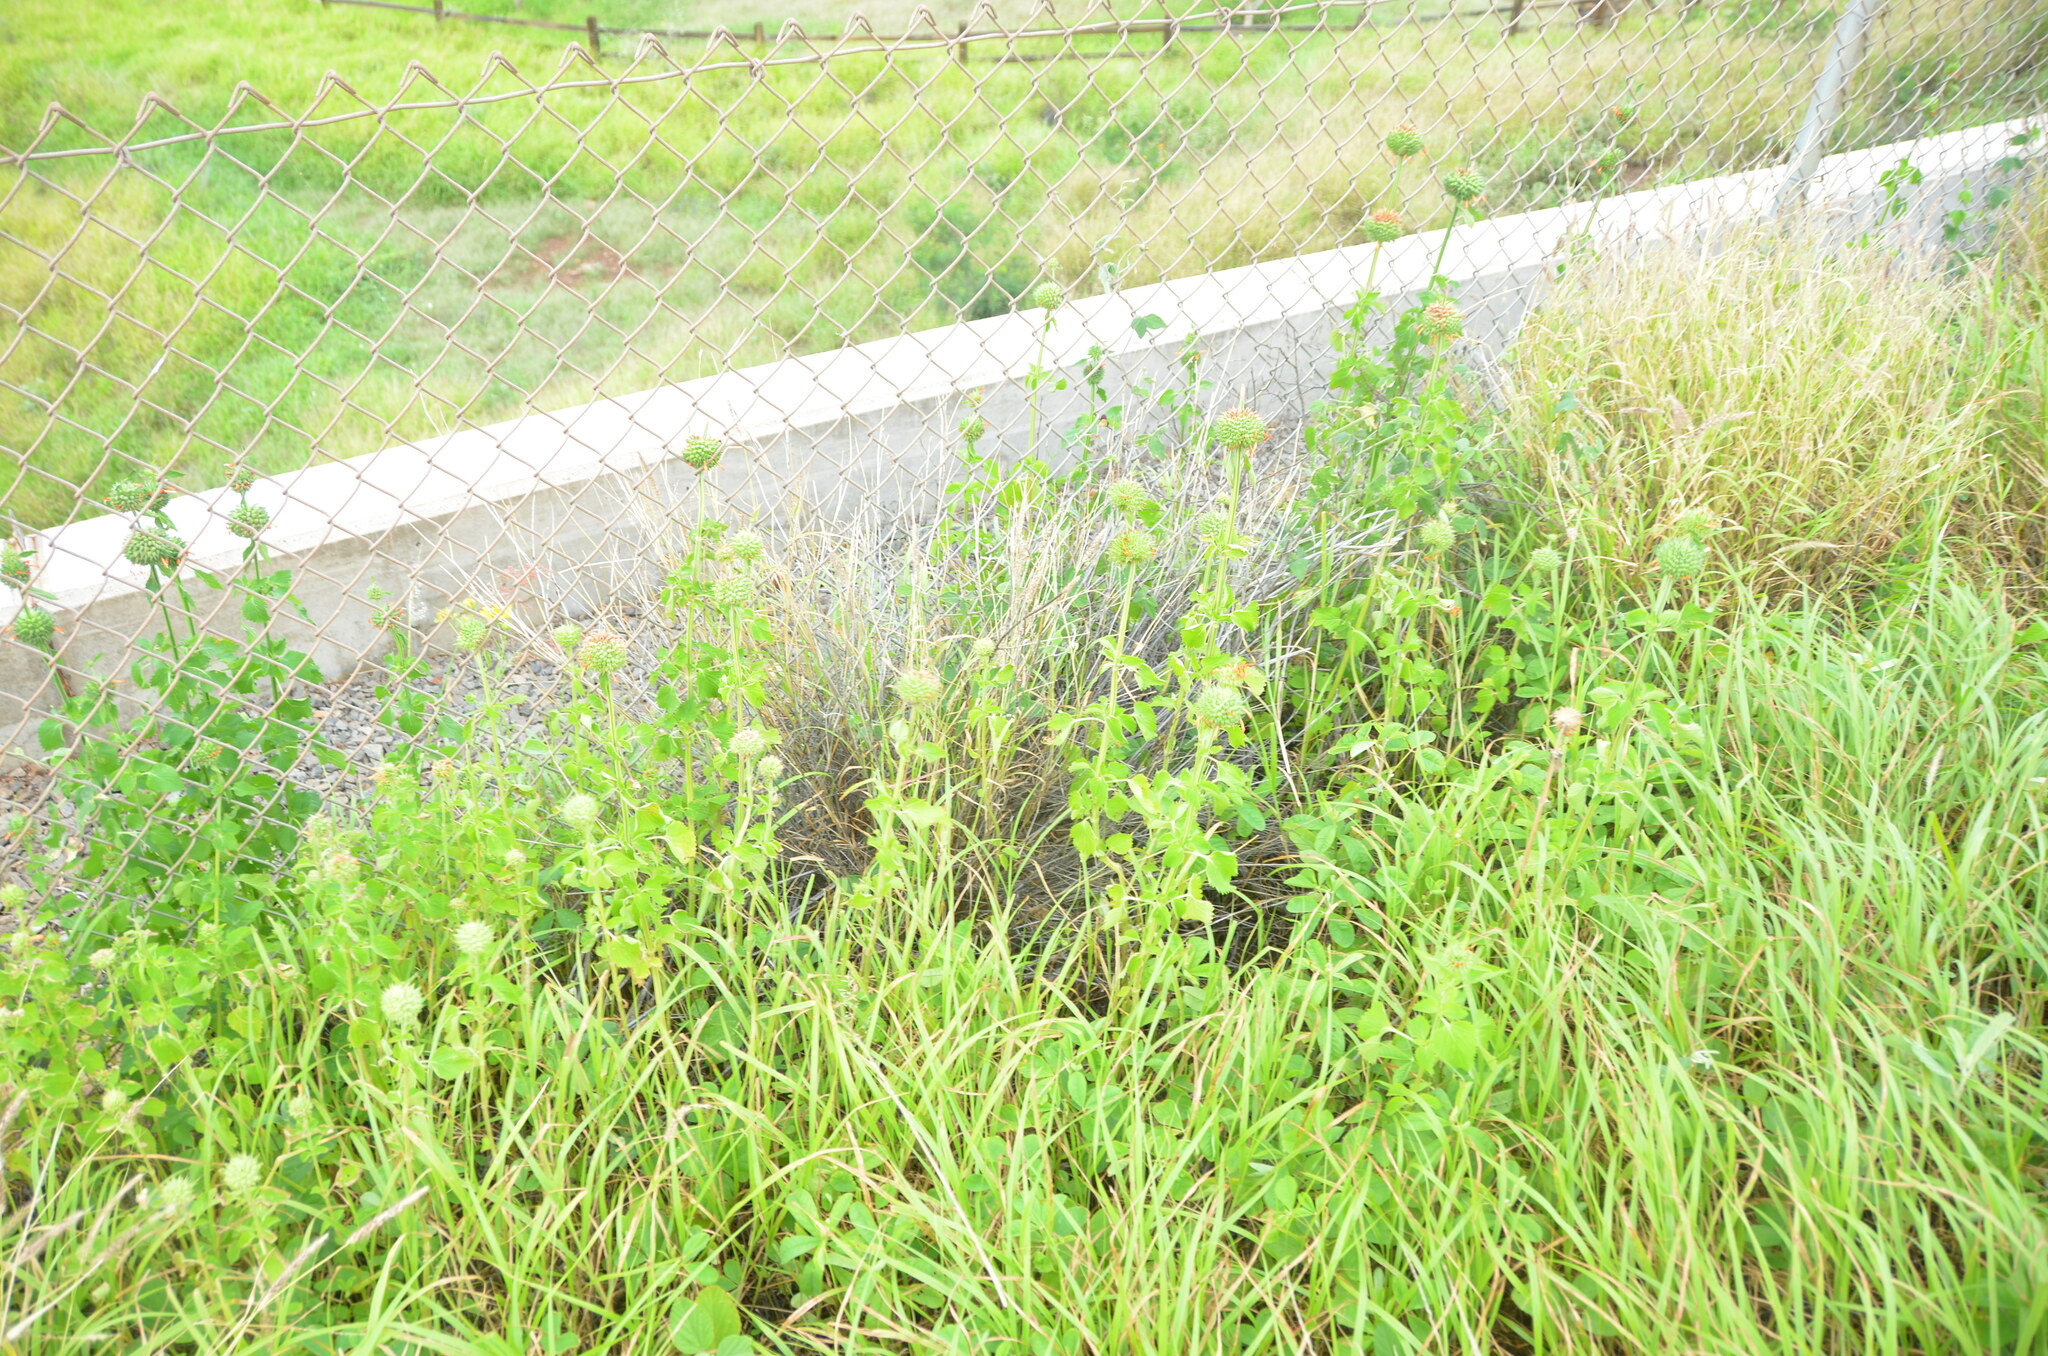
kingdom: Plantae
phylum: Tracheophyta
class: Magnoliopsida
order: Lamiales
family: Lamiaceae
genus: Leonotis
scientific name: Leonotis nepetifolia
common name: Christmas candlestick
